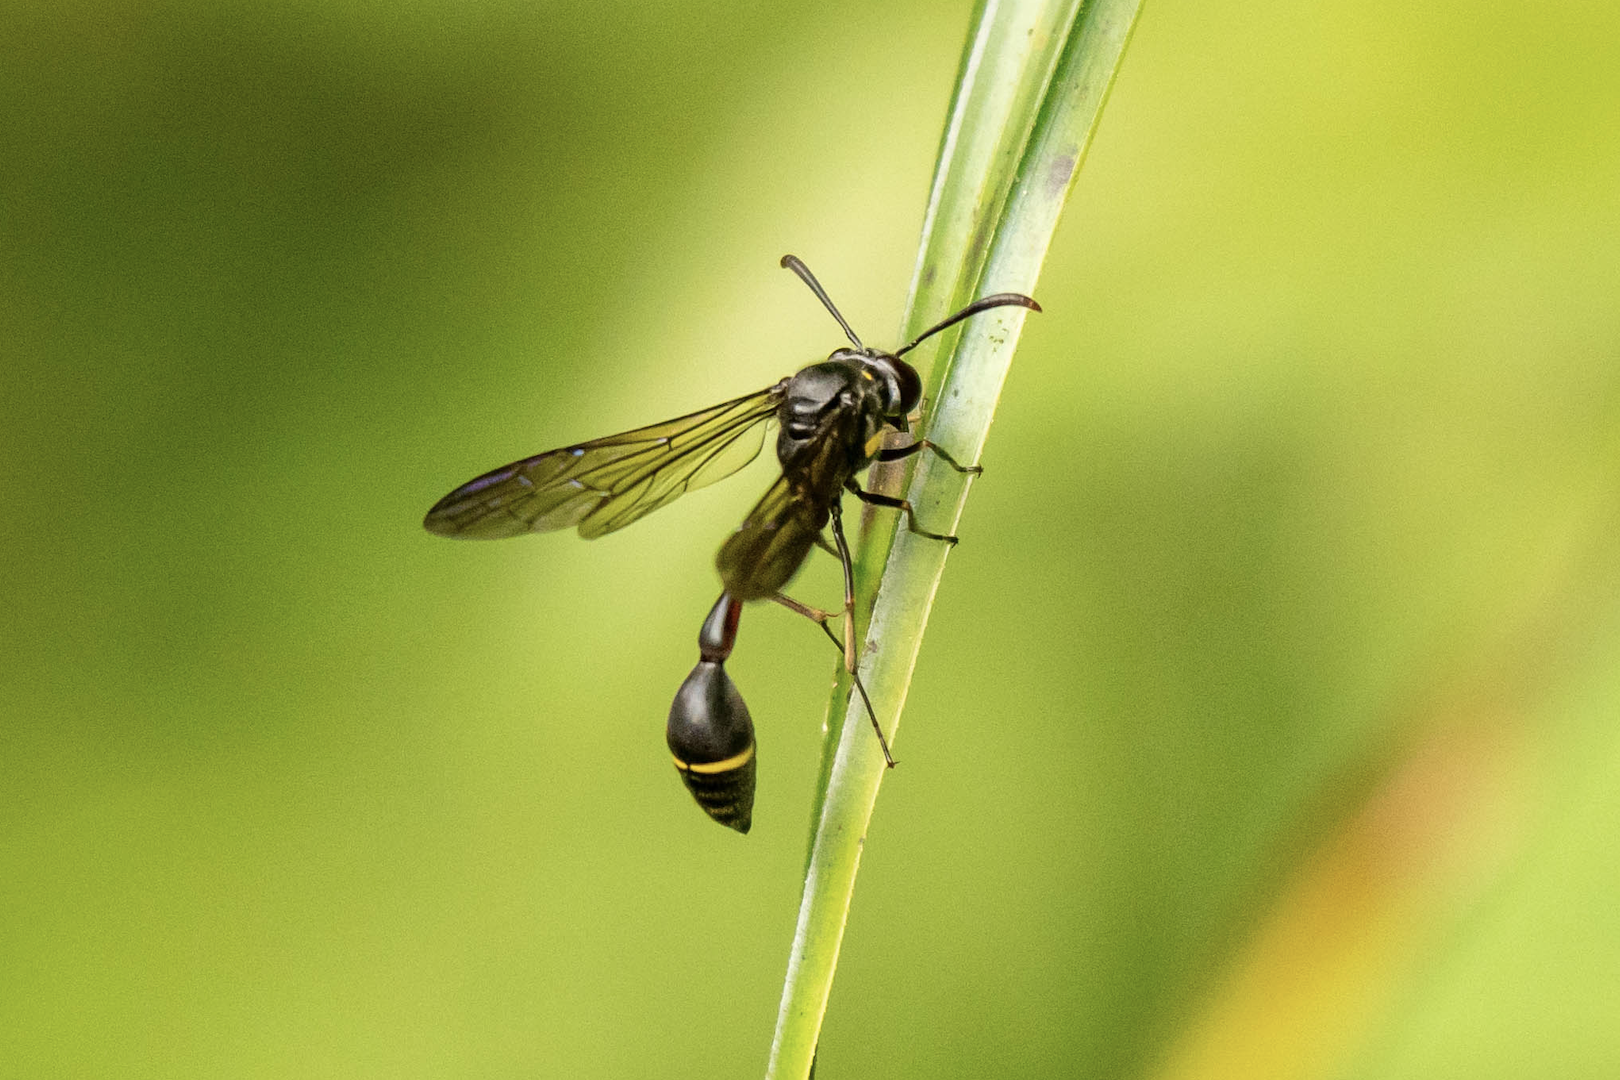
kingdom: Animalia
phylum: Arthropoda
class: Insecta
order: Hymenoptera
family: Vespidae
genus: Eustenogaster
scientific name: Eustenogaster nigra
